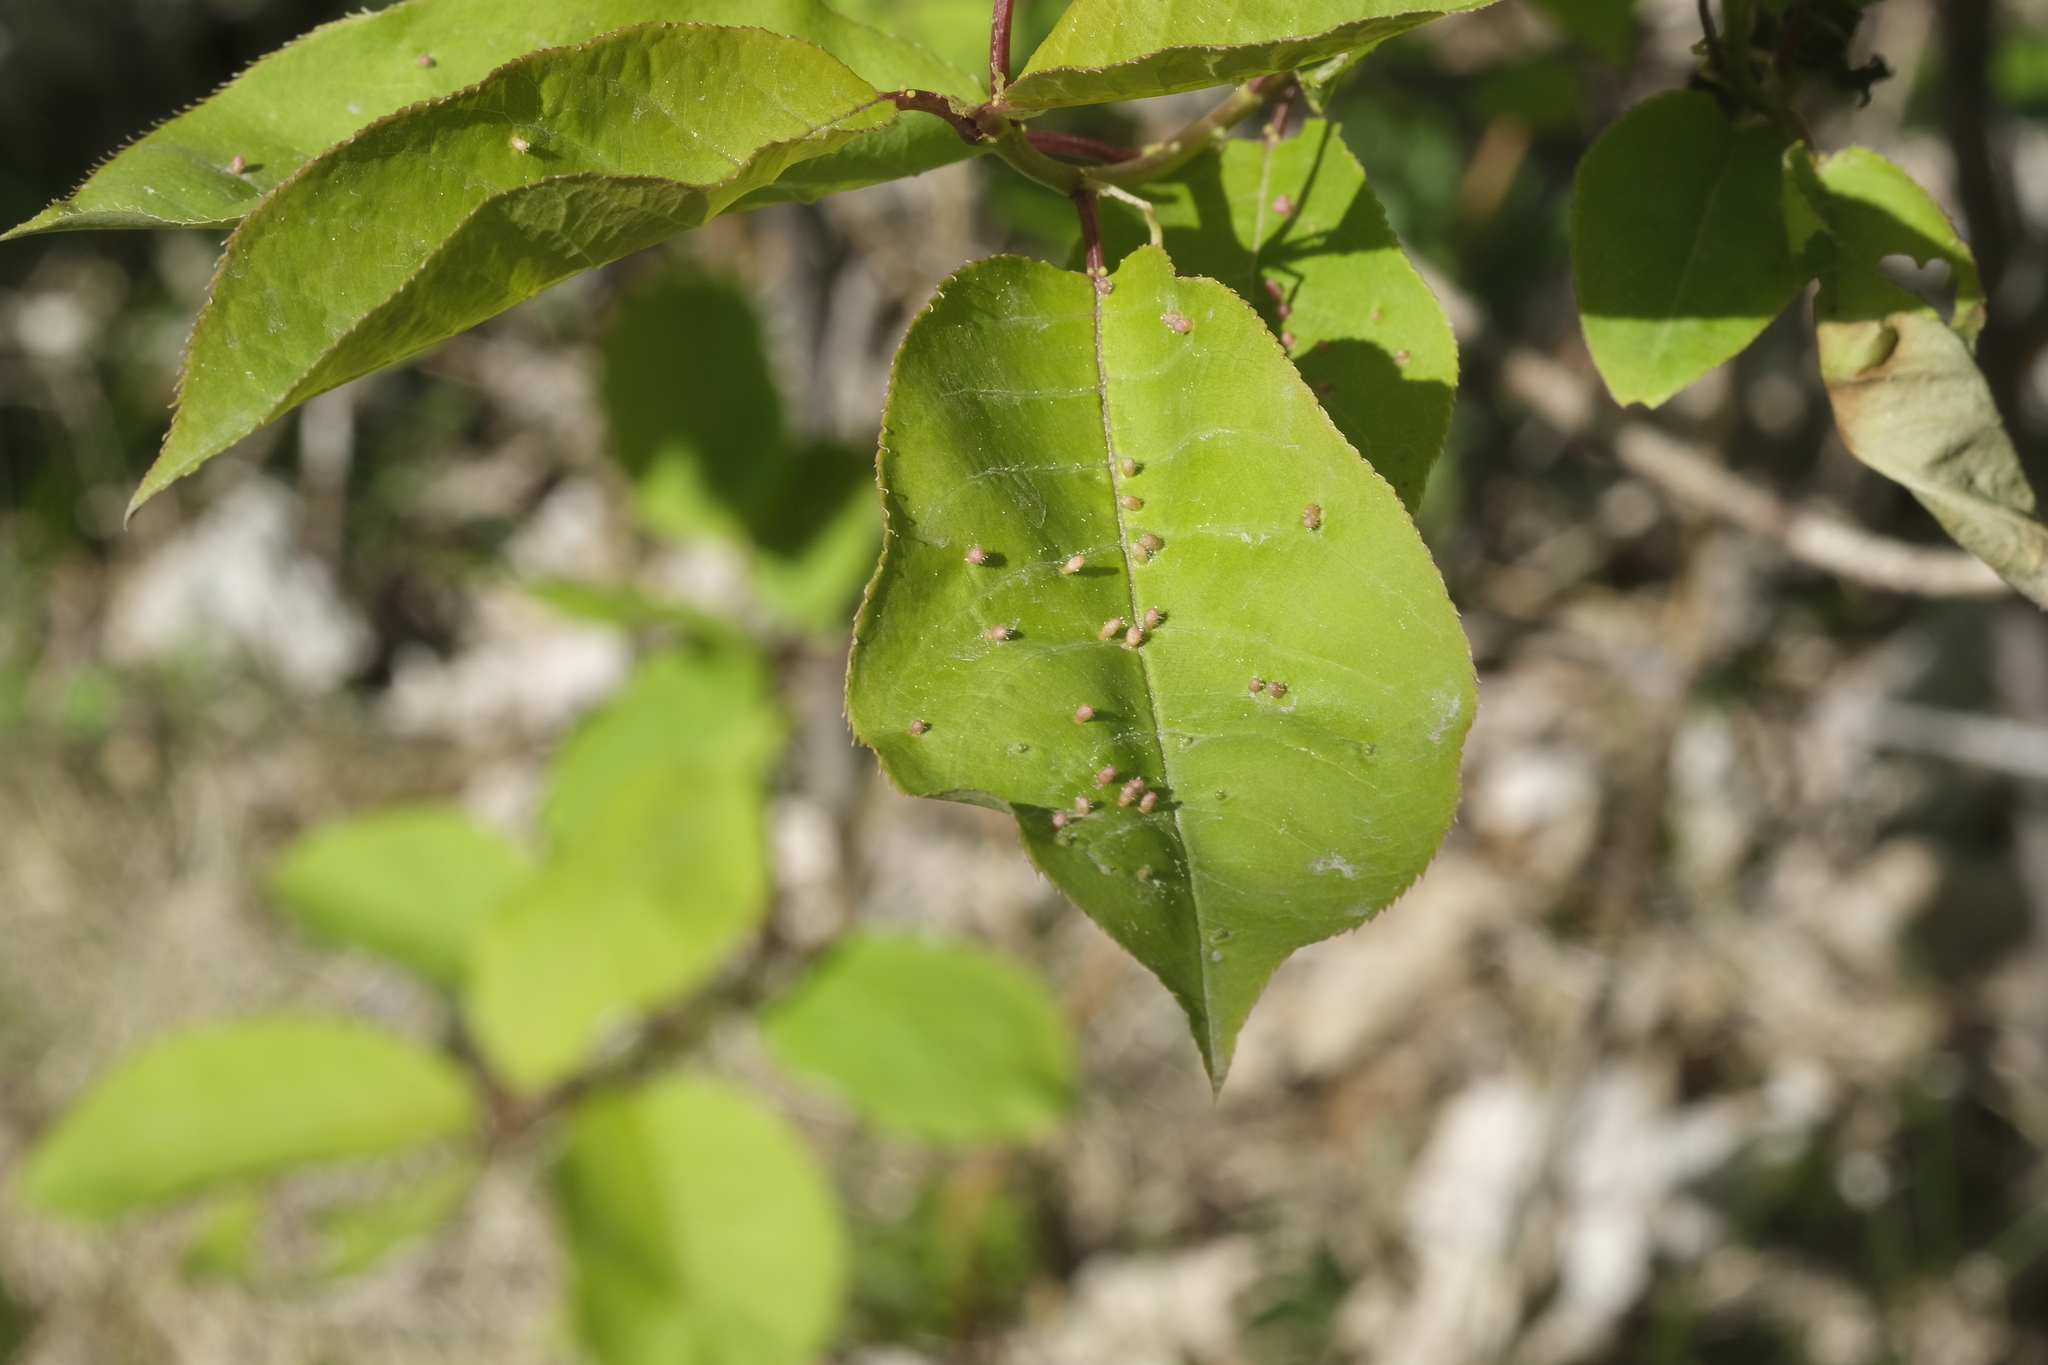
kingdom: Animalia
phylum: Arthropoda
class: Arachnida
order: Trombidiformes
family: Eriophyidae
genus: Eriophyes
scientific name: Eriophyes emarginatae
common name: Plum leaf gall mite
